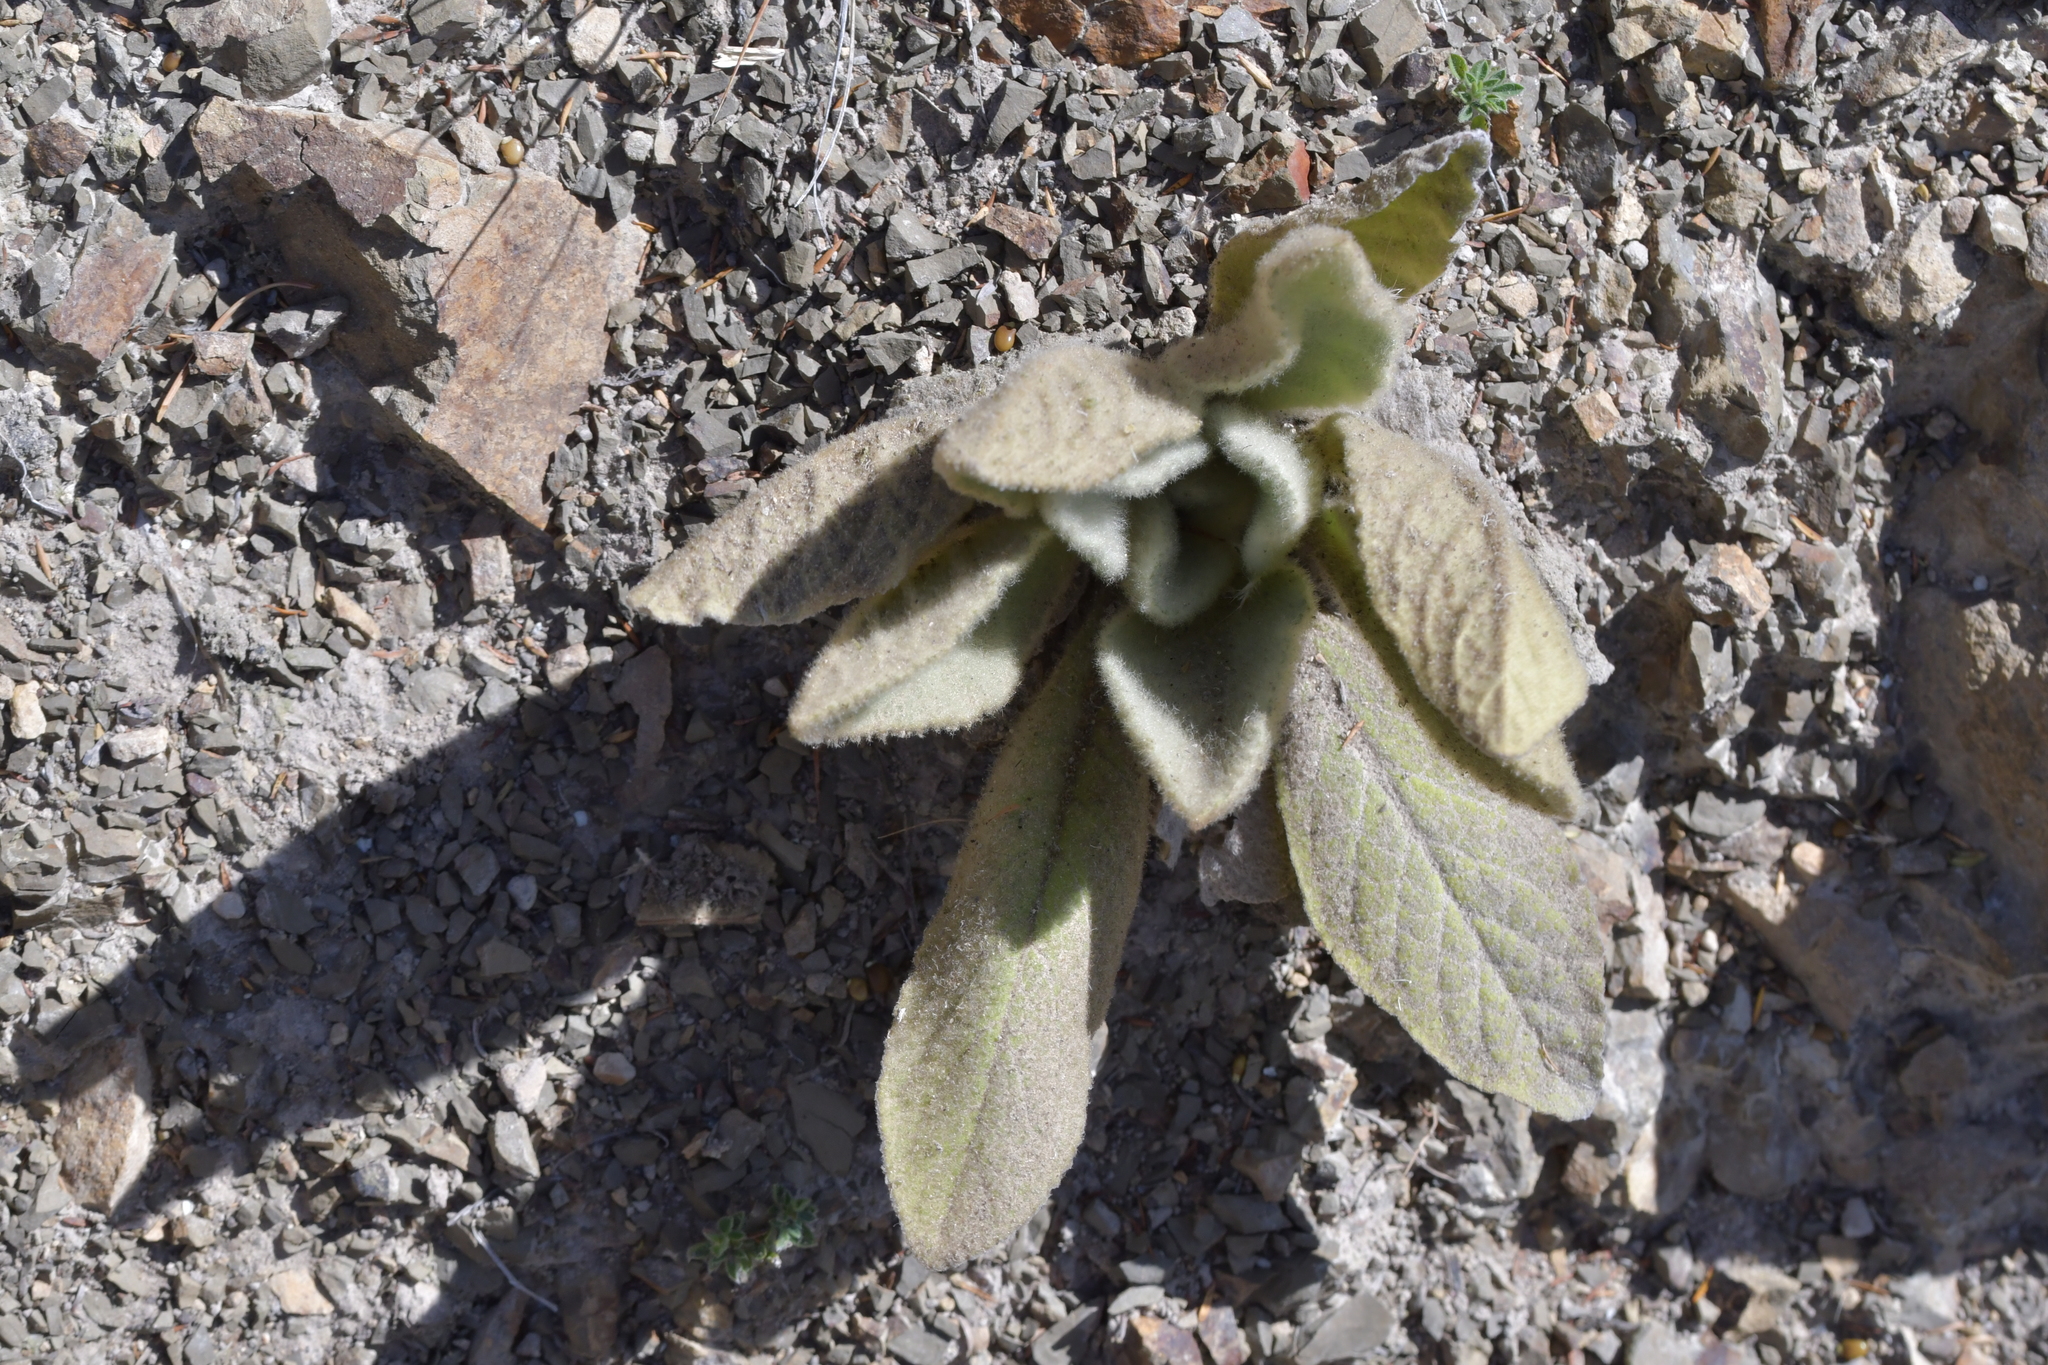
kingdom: Plantae
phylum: Tracheophyta
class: Magnoliopsida
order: Lamiales
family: Scrophulariaceae
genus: Verbascum
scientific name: Verbascum thapsus
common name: Common mullein
